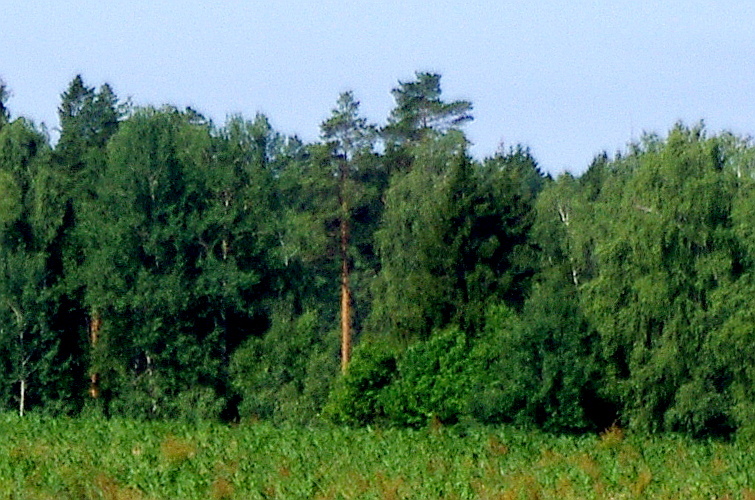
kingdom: Plantae
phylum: Tracheophyta
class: Pinopsida
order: Pinales
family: Pinaceae
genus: Pinus
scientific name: Pinus sylvestris
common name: Scots pine
